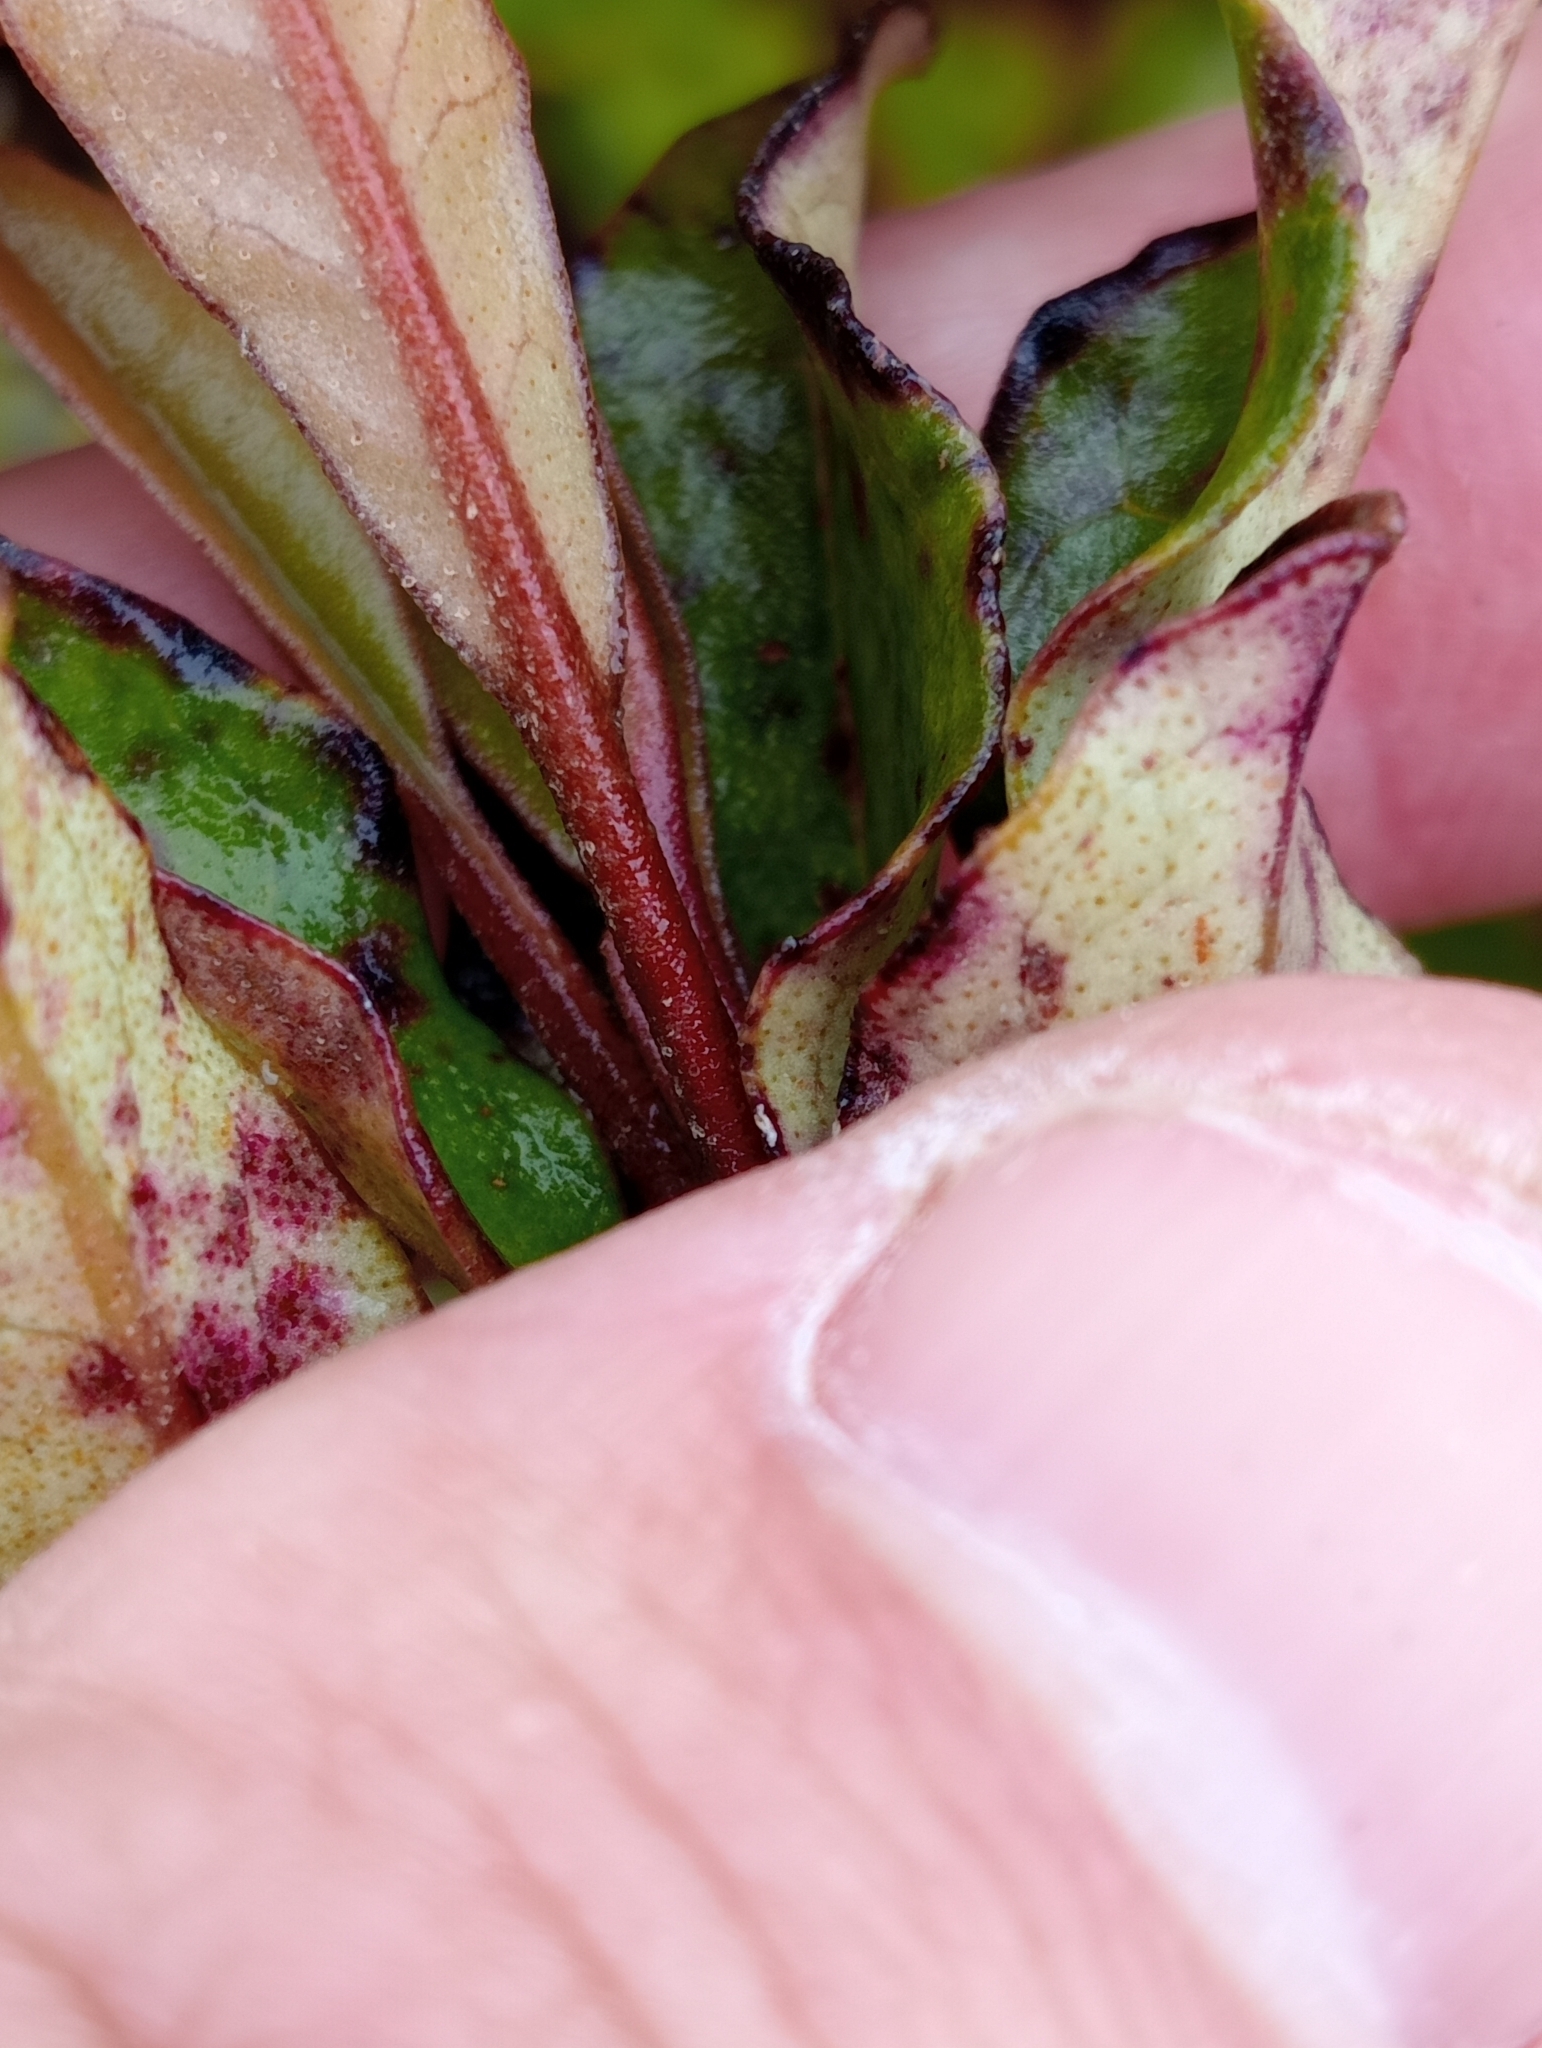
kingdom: Plantae
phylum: Tracheophyta
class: Magnoliopsida
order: Paracryphiales
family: Paracryphiaceae
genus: Quintinia
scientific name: Quintinia serrata
